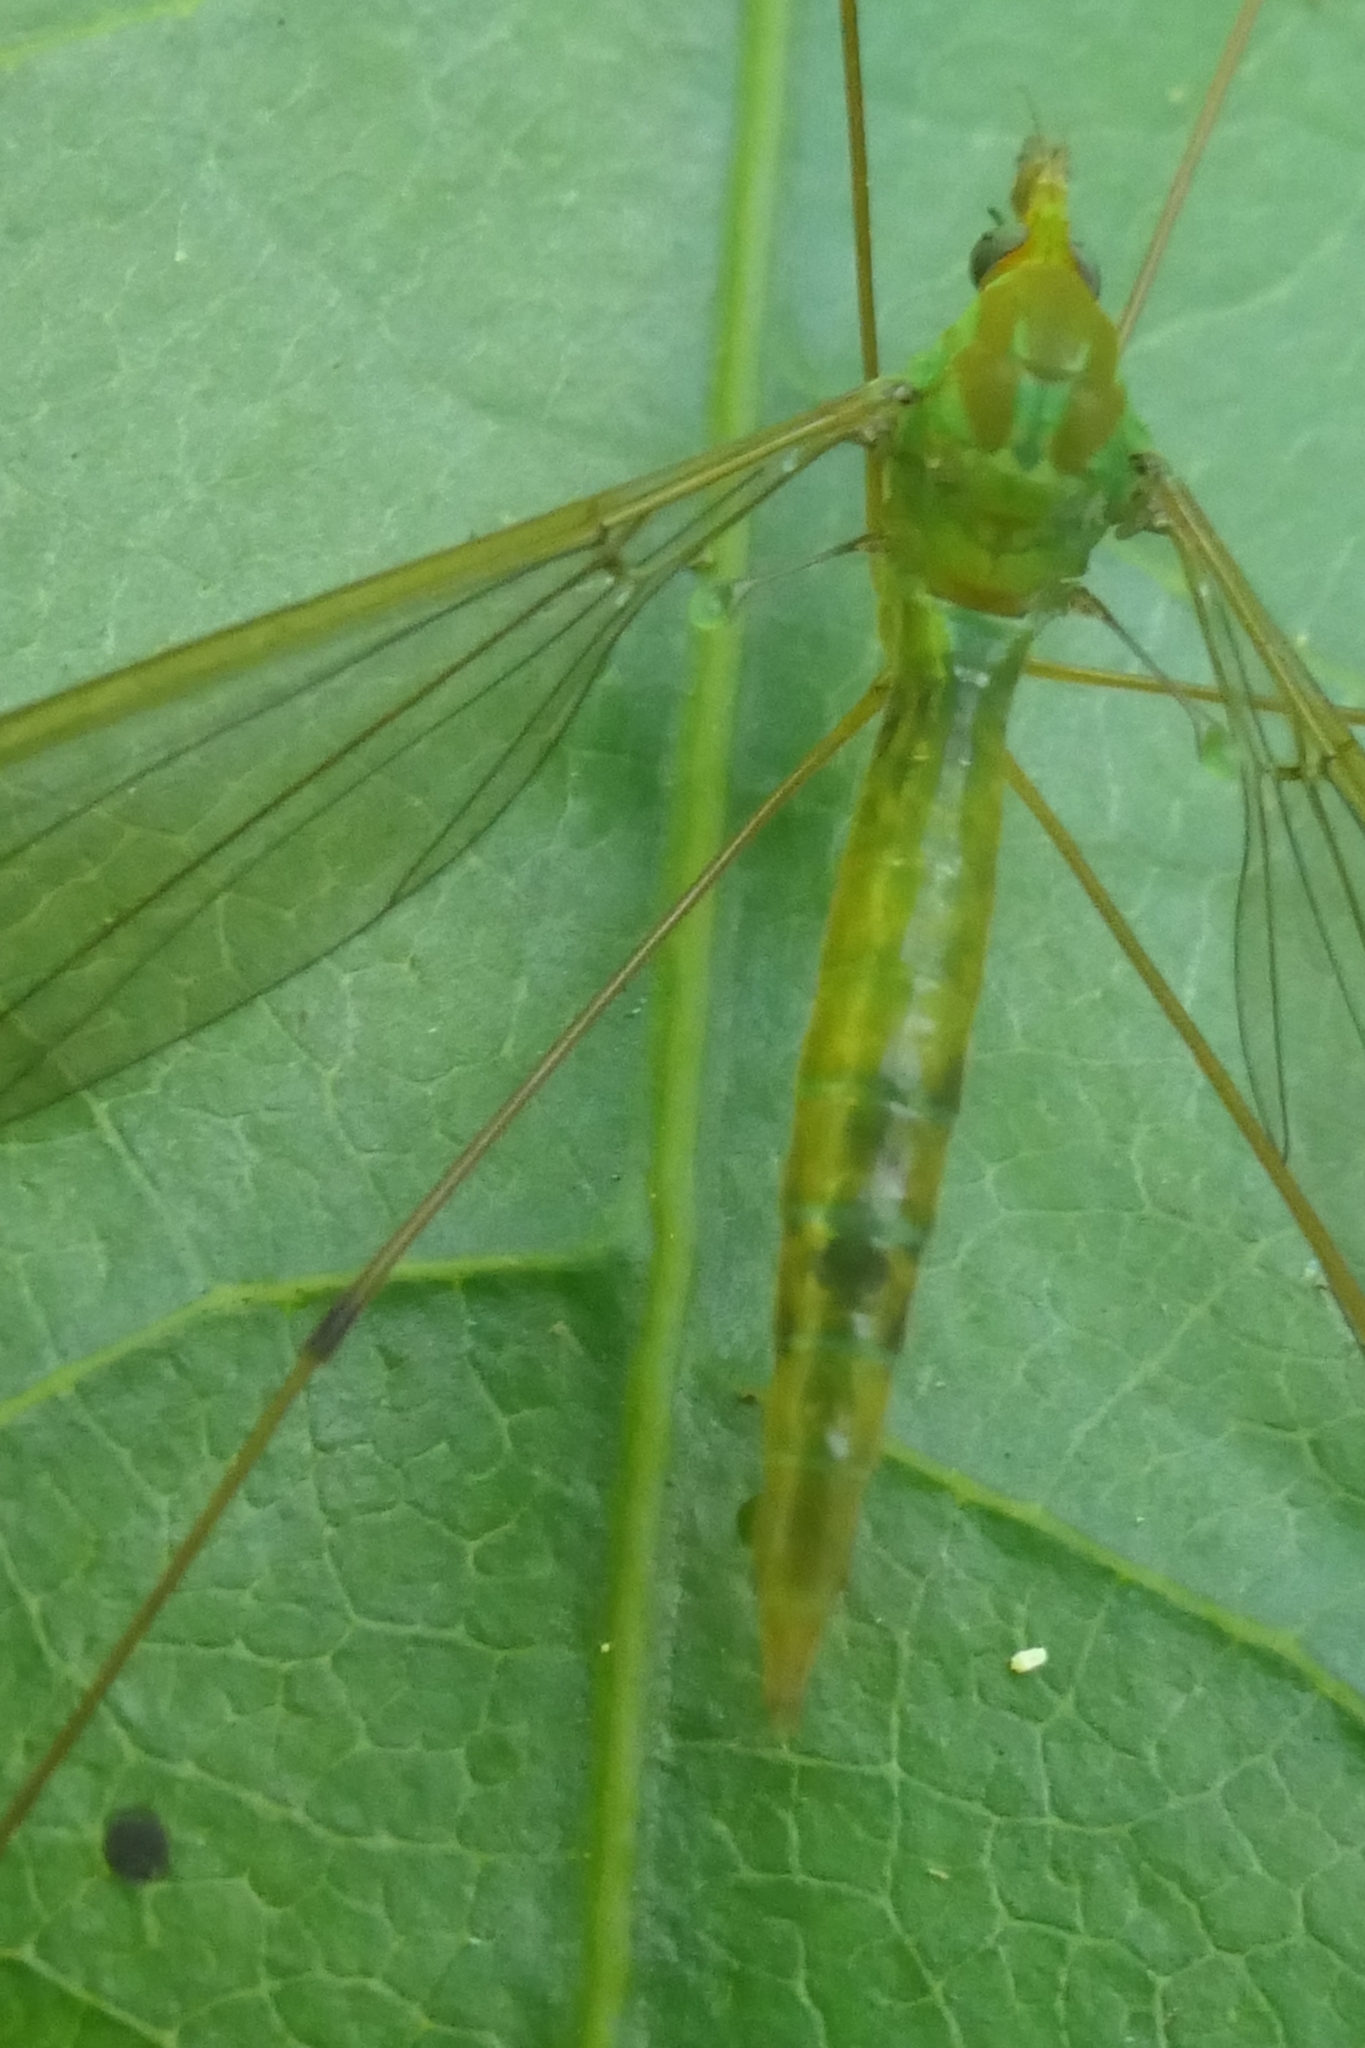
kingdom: Animalia
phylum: Arthropoda
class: Insecta
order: Diptera
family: Tipulidae
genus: Leptotarsus
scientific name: Leptotarsus virescens
